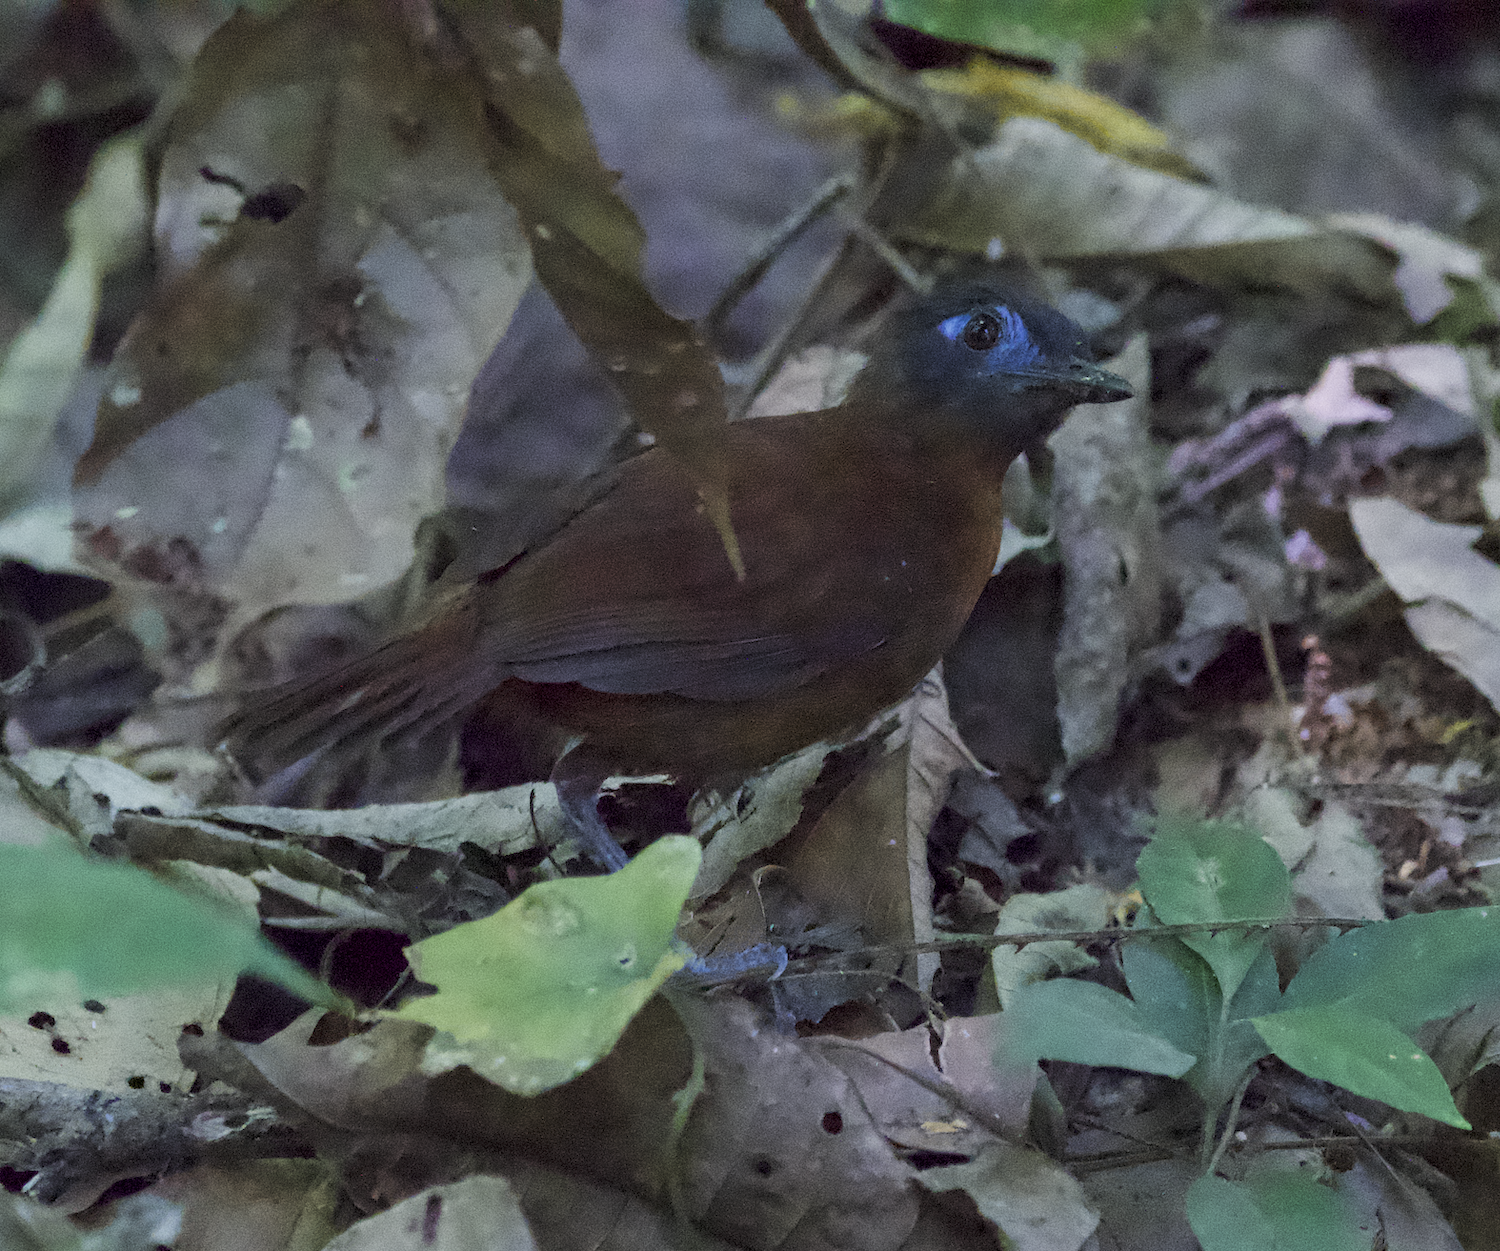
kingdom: Animalia
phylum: Chordata
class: Aves
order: Passeriformes
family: Thamnophilidae
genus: Myrmeciza
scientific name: Myrmeciza exsul
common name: Chestnut-backed antbird
